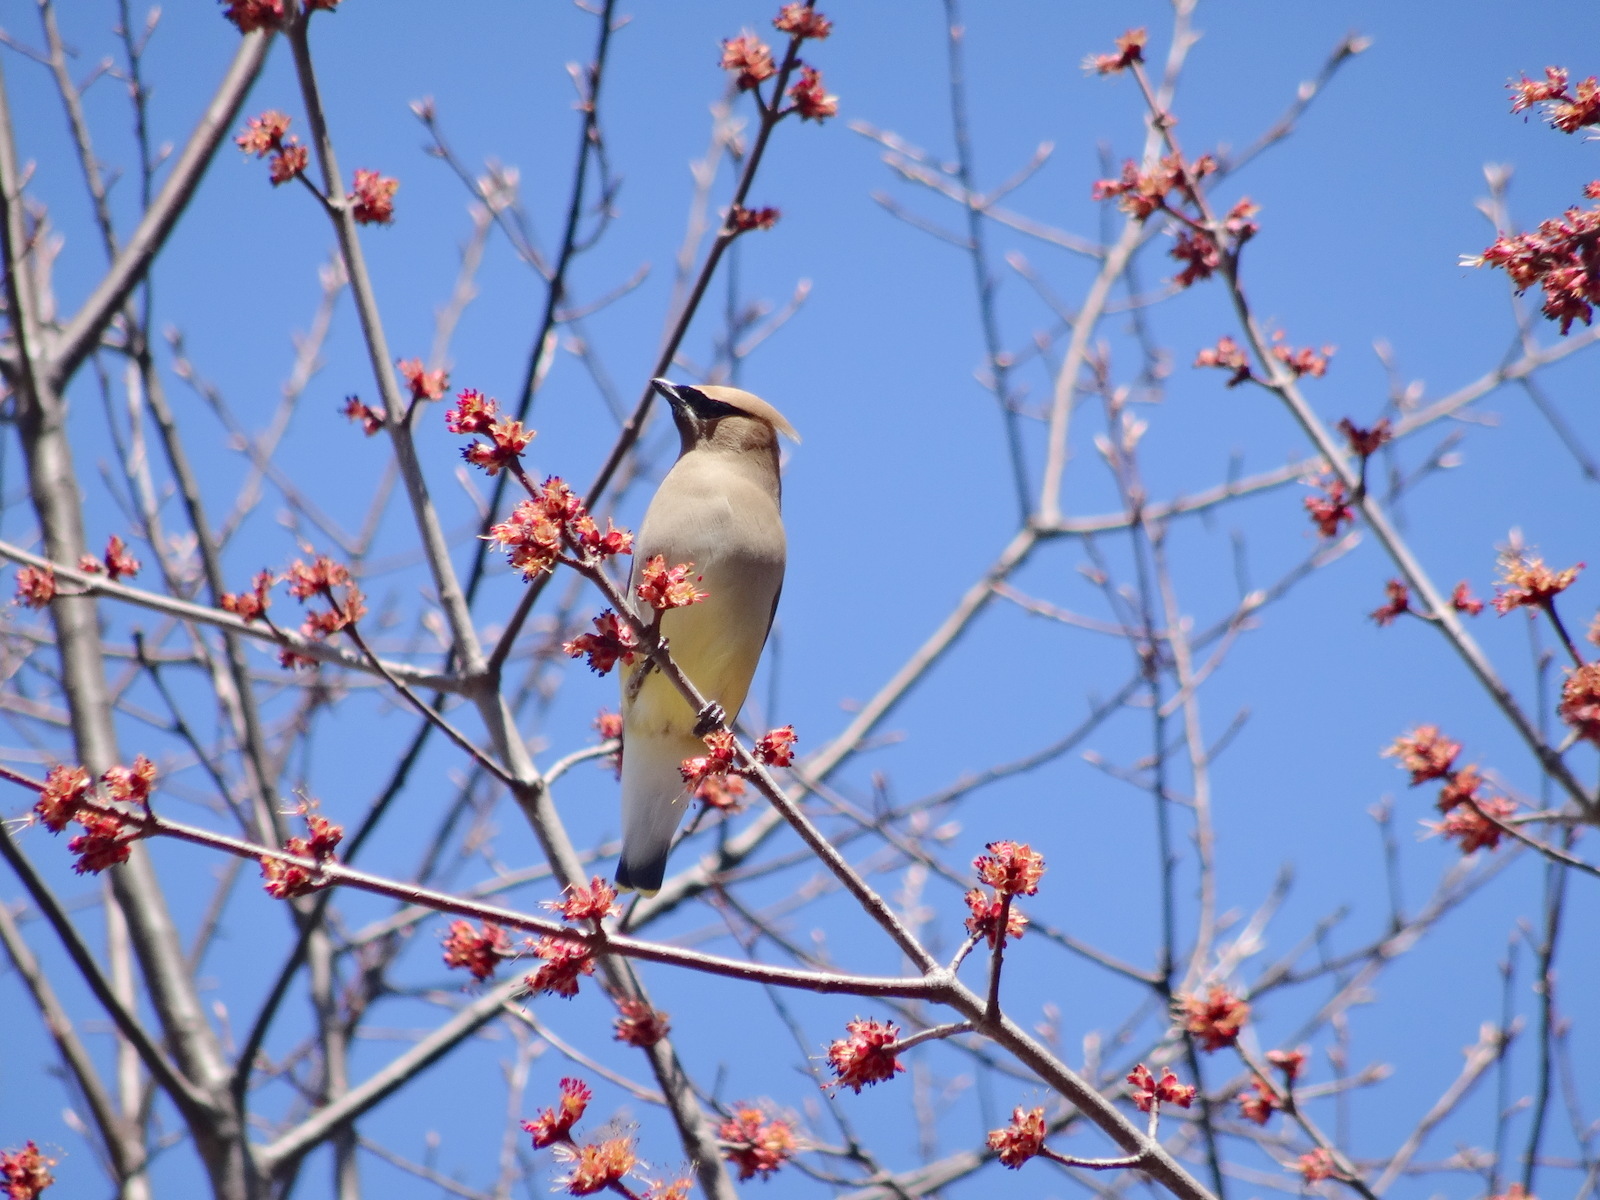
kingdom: Animalia
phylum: Chordata
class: Aves
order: Passeriformes
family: Bombycillidae
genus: Bombycilla
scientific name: Bombycilla cedrorum
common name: Cedar waxwing
